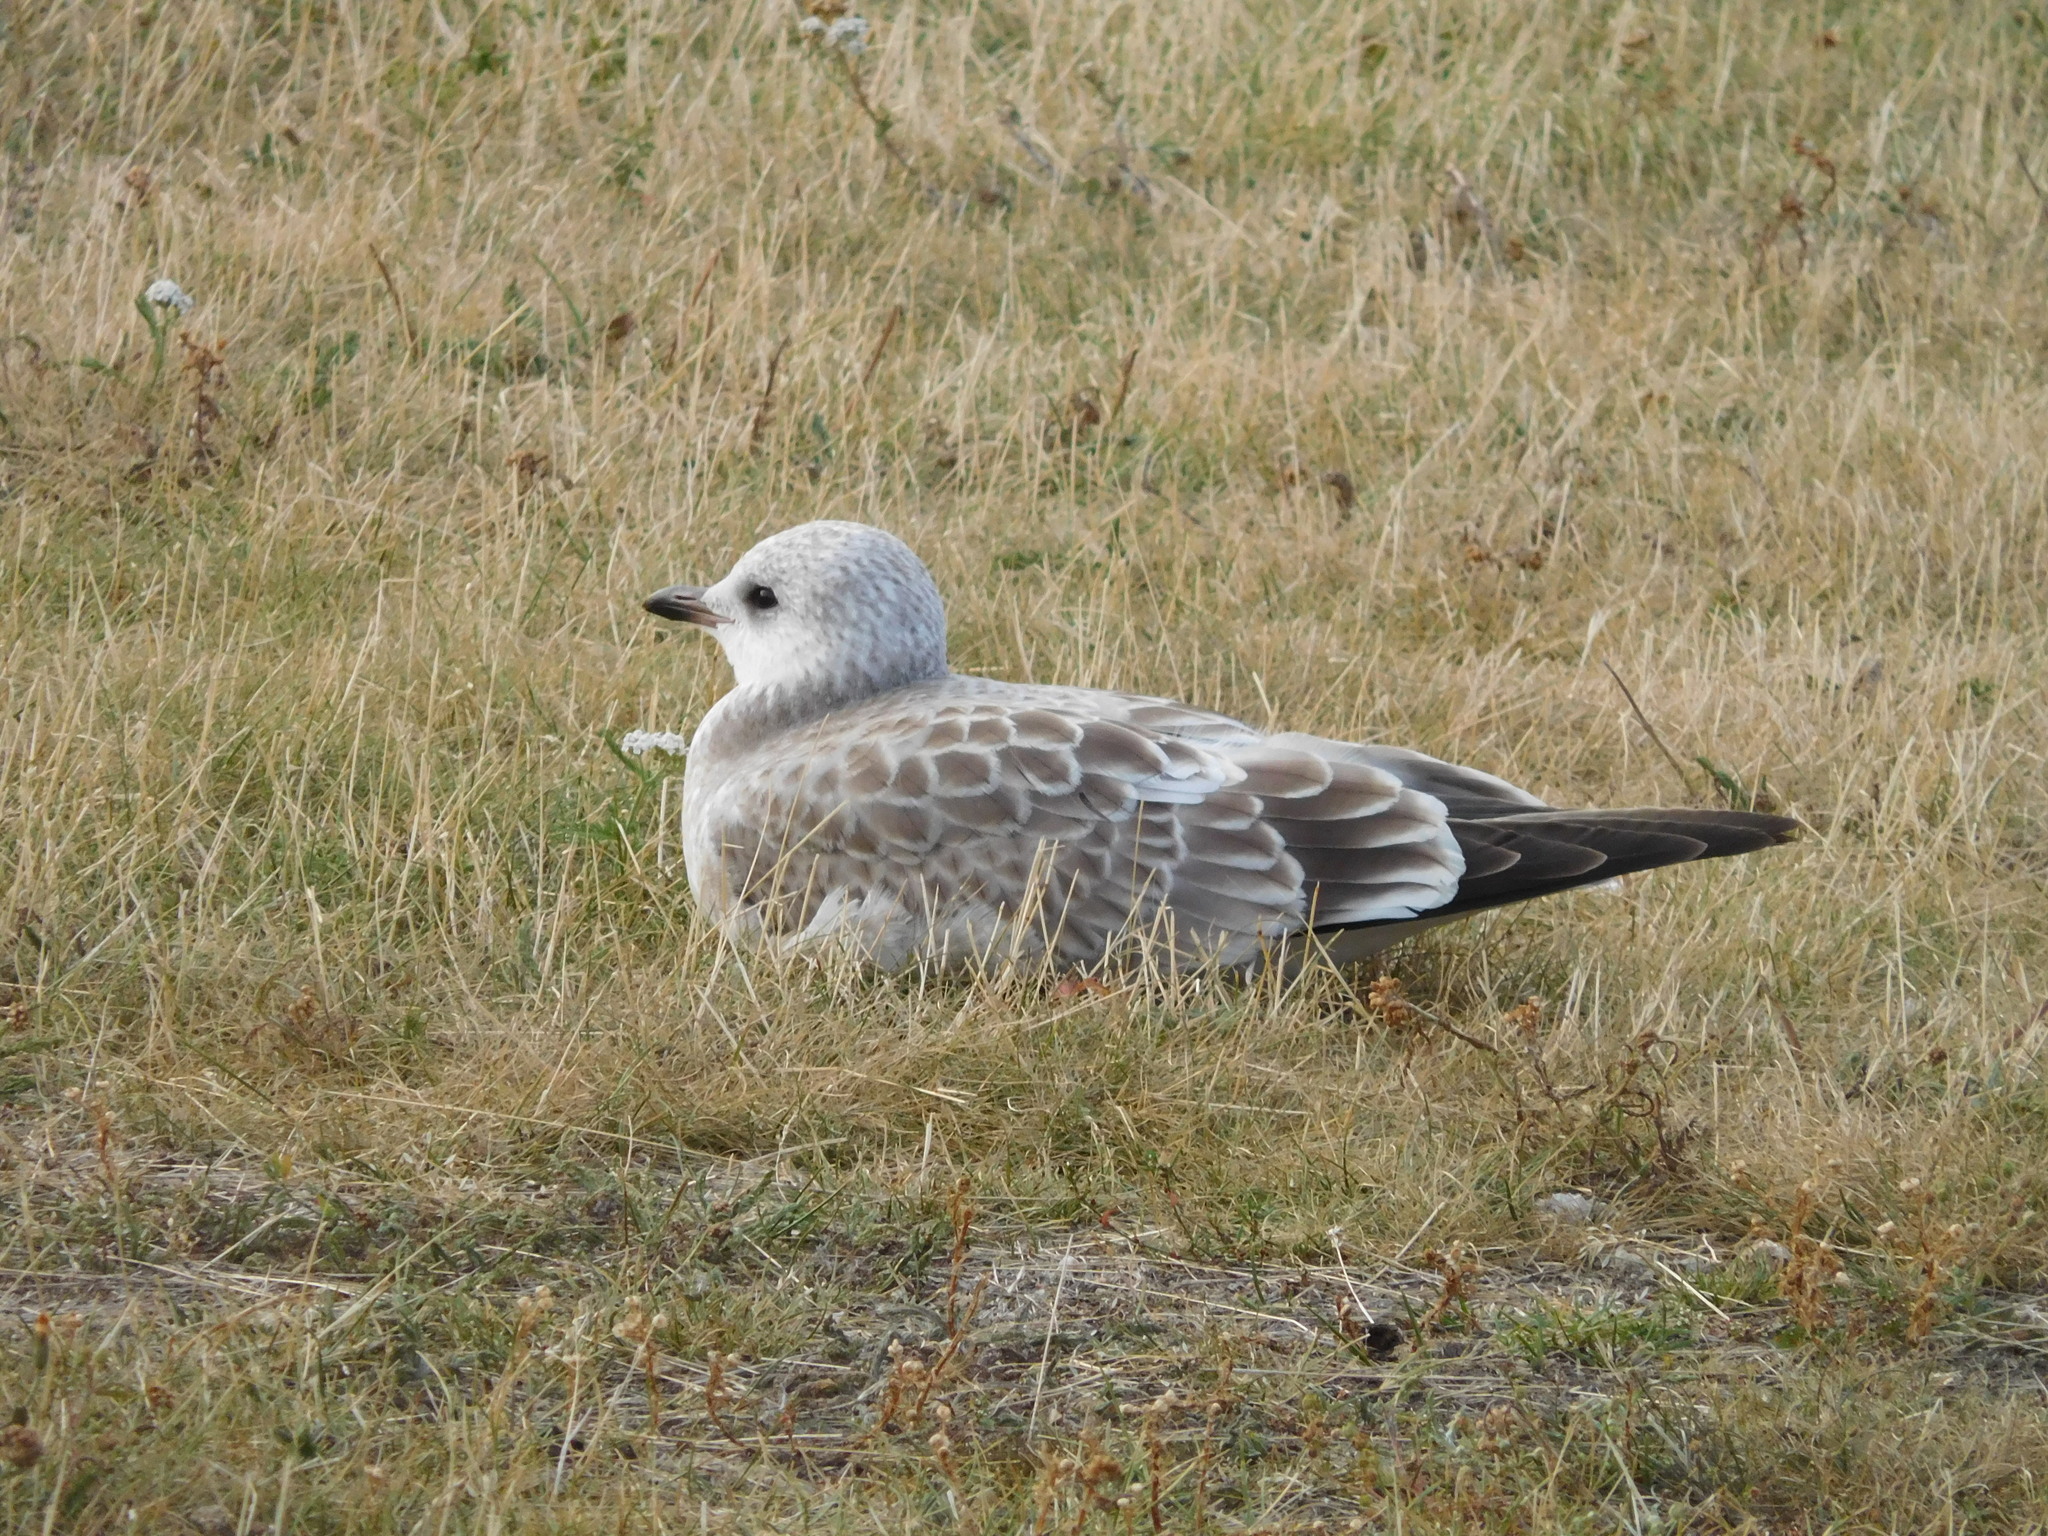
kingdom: Animalia
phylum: Chordata
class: Aves
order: Charadriiformes
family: Laridae
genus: Larus
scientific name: Larus canus
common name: Mew gull
